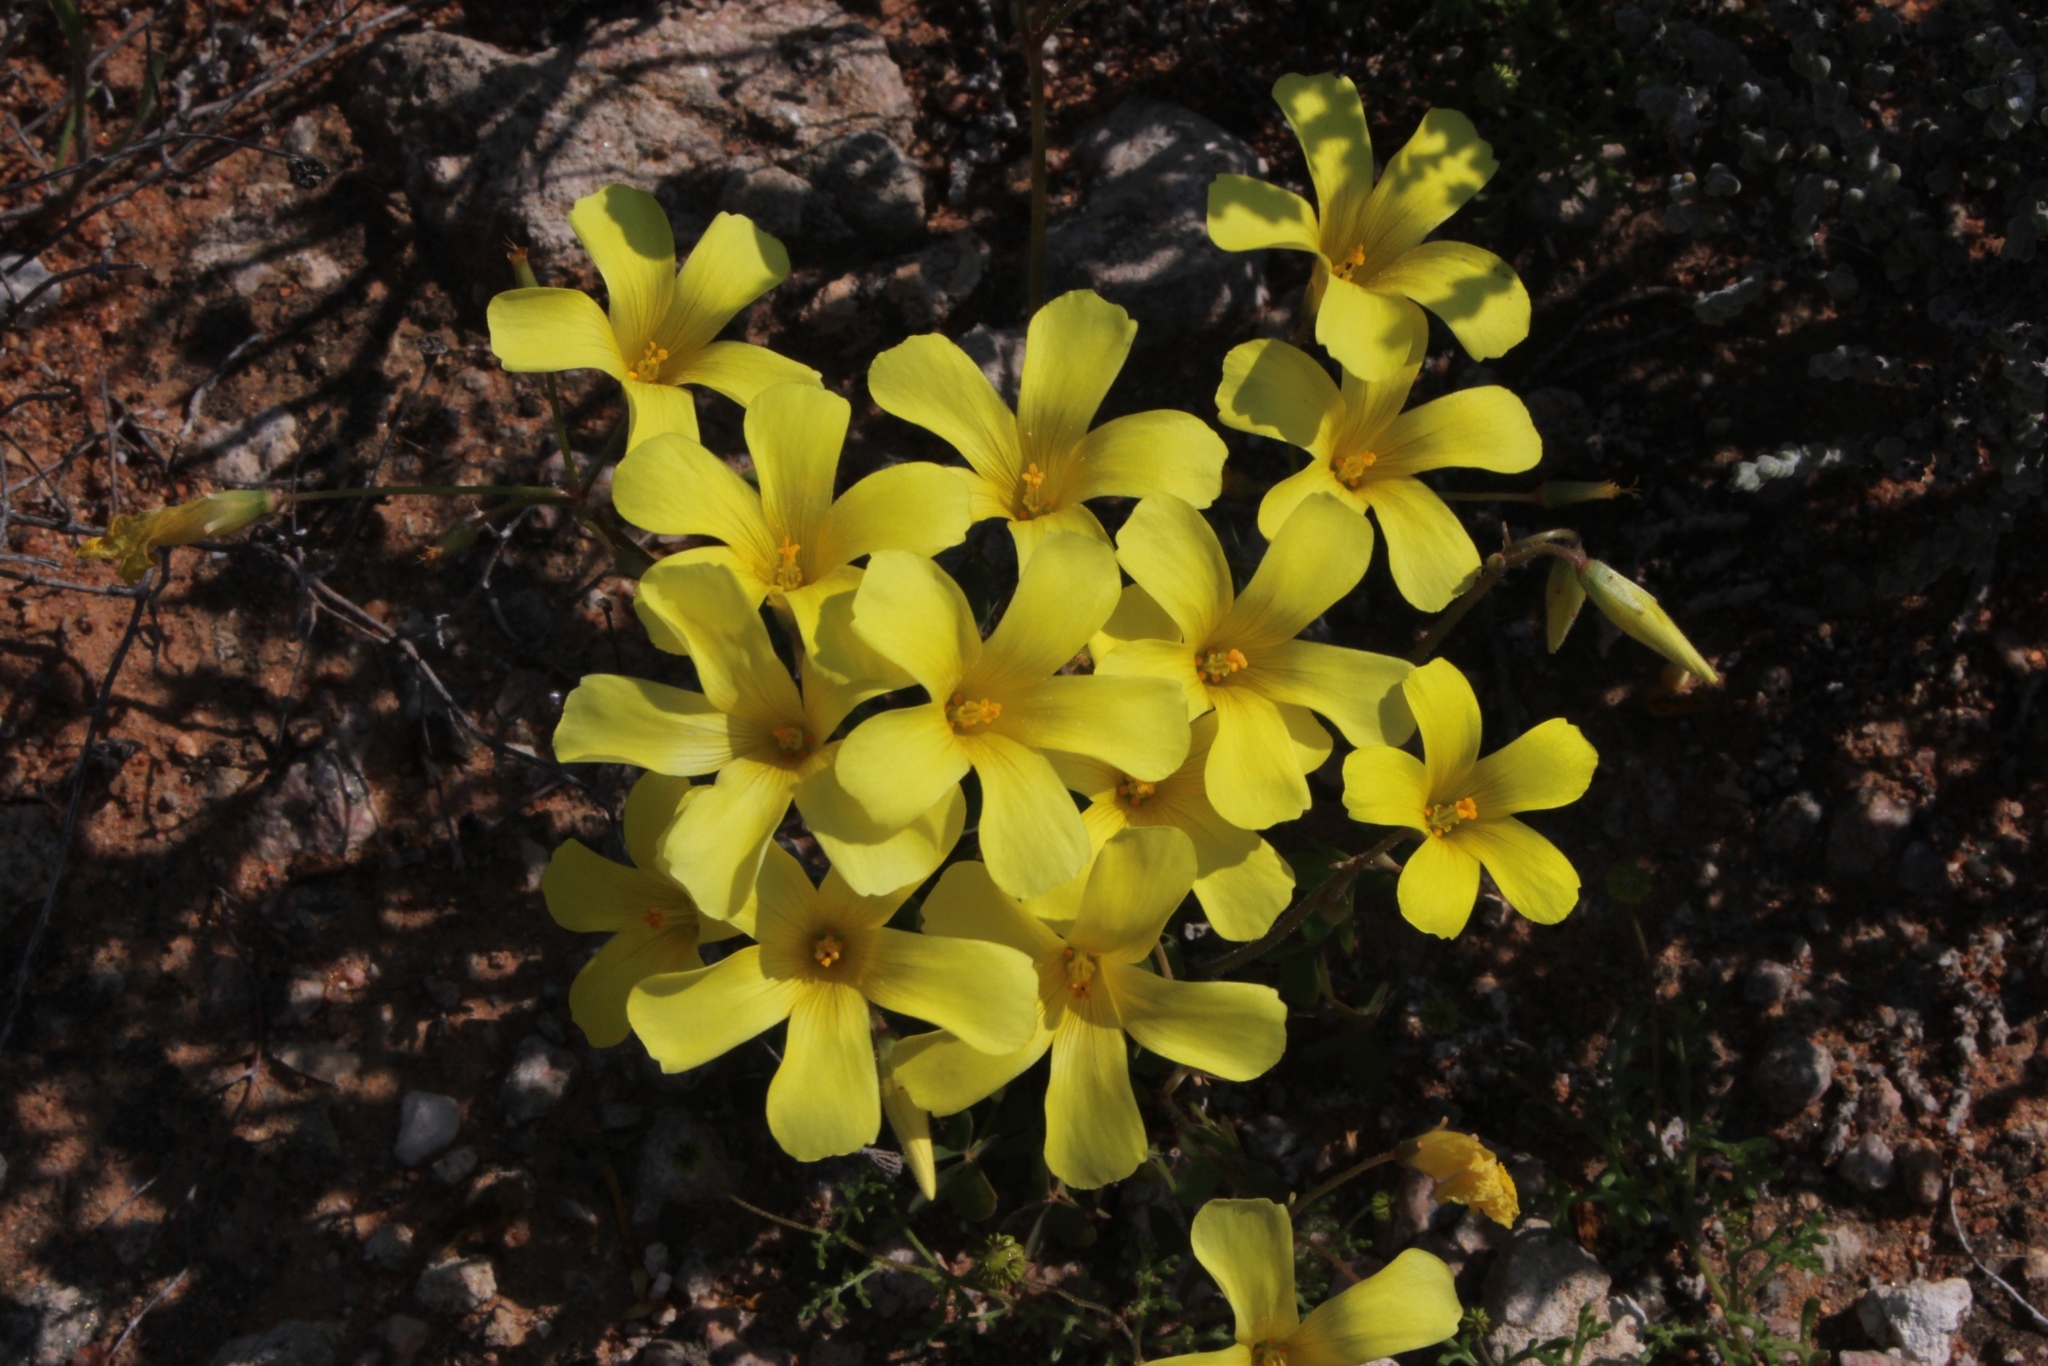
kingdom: Plantae
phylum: Tracheophyta
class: Magnoliopsida
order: Oxalidales
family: Oxalidaceae
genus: Oxalis
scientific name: Oxalis copiosa
